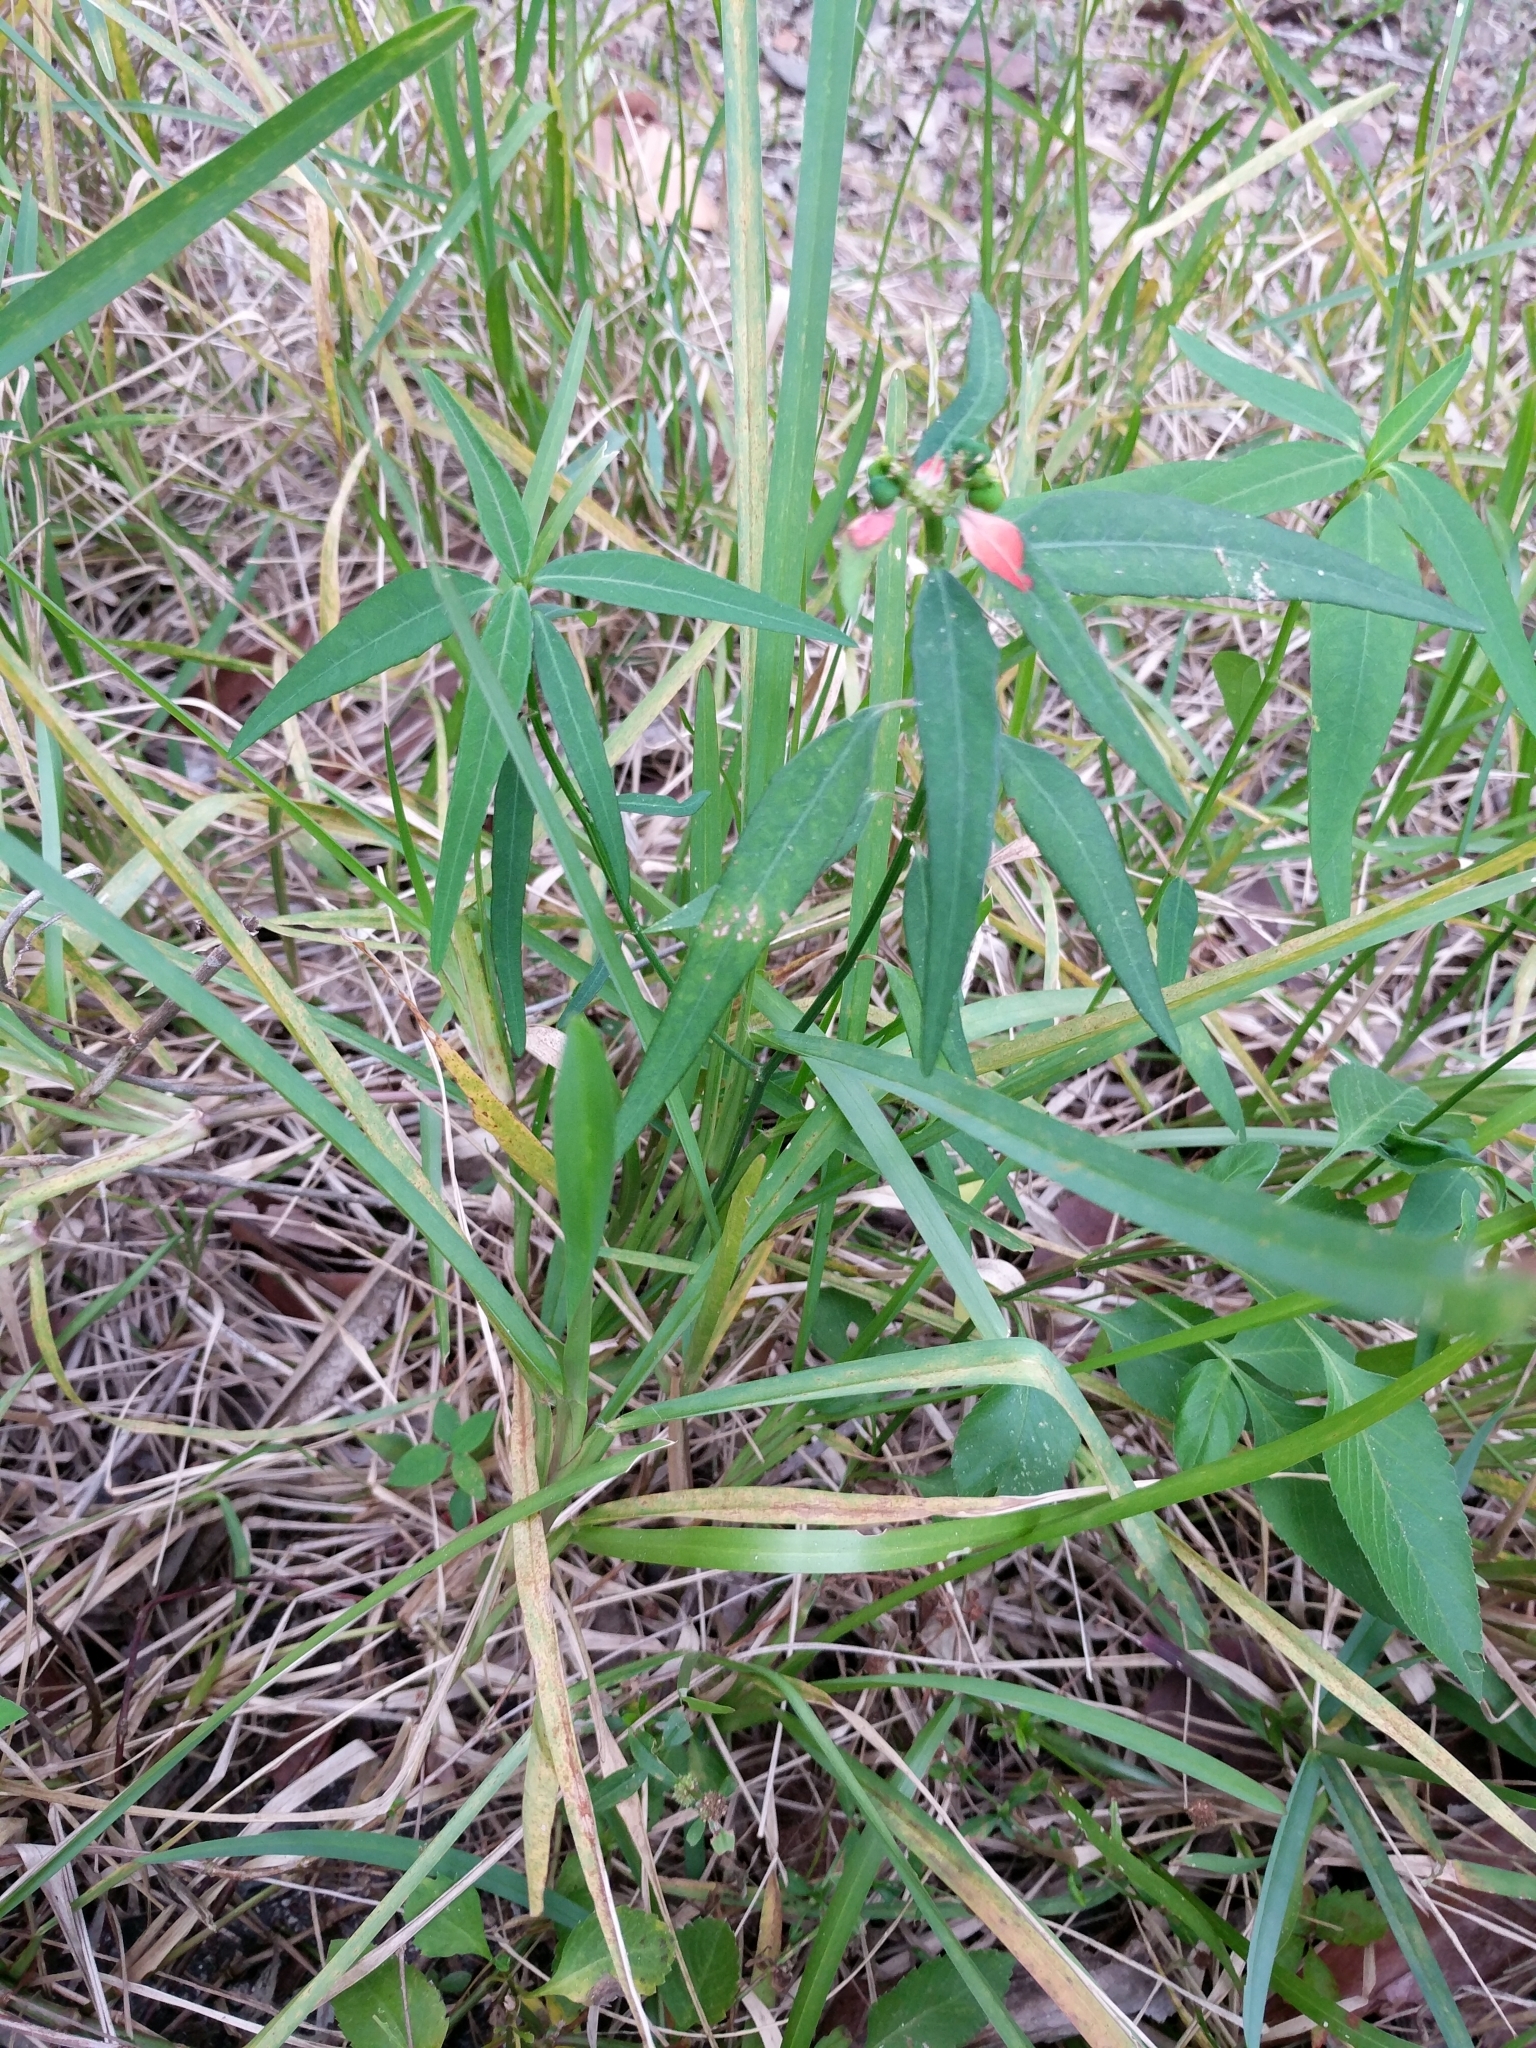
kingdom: Plantae
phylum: Tracheophyta
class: Magnoliopsida
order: Malpighiales
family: Euphorbiaceae
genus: Euphorbia
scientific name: Euphorbia heterophylla
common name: Mexican fireplant
